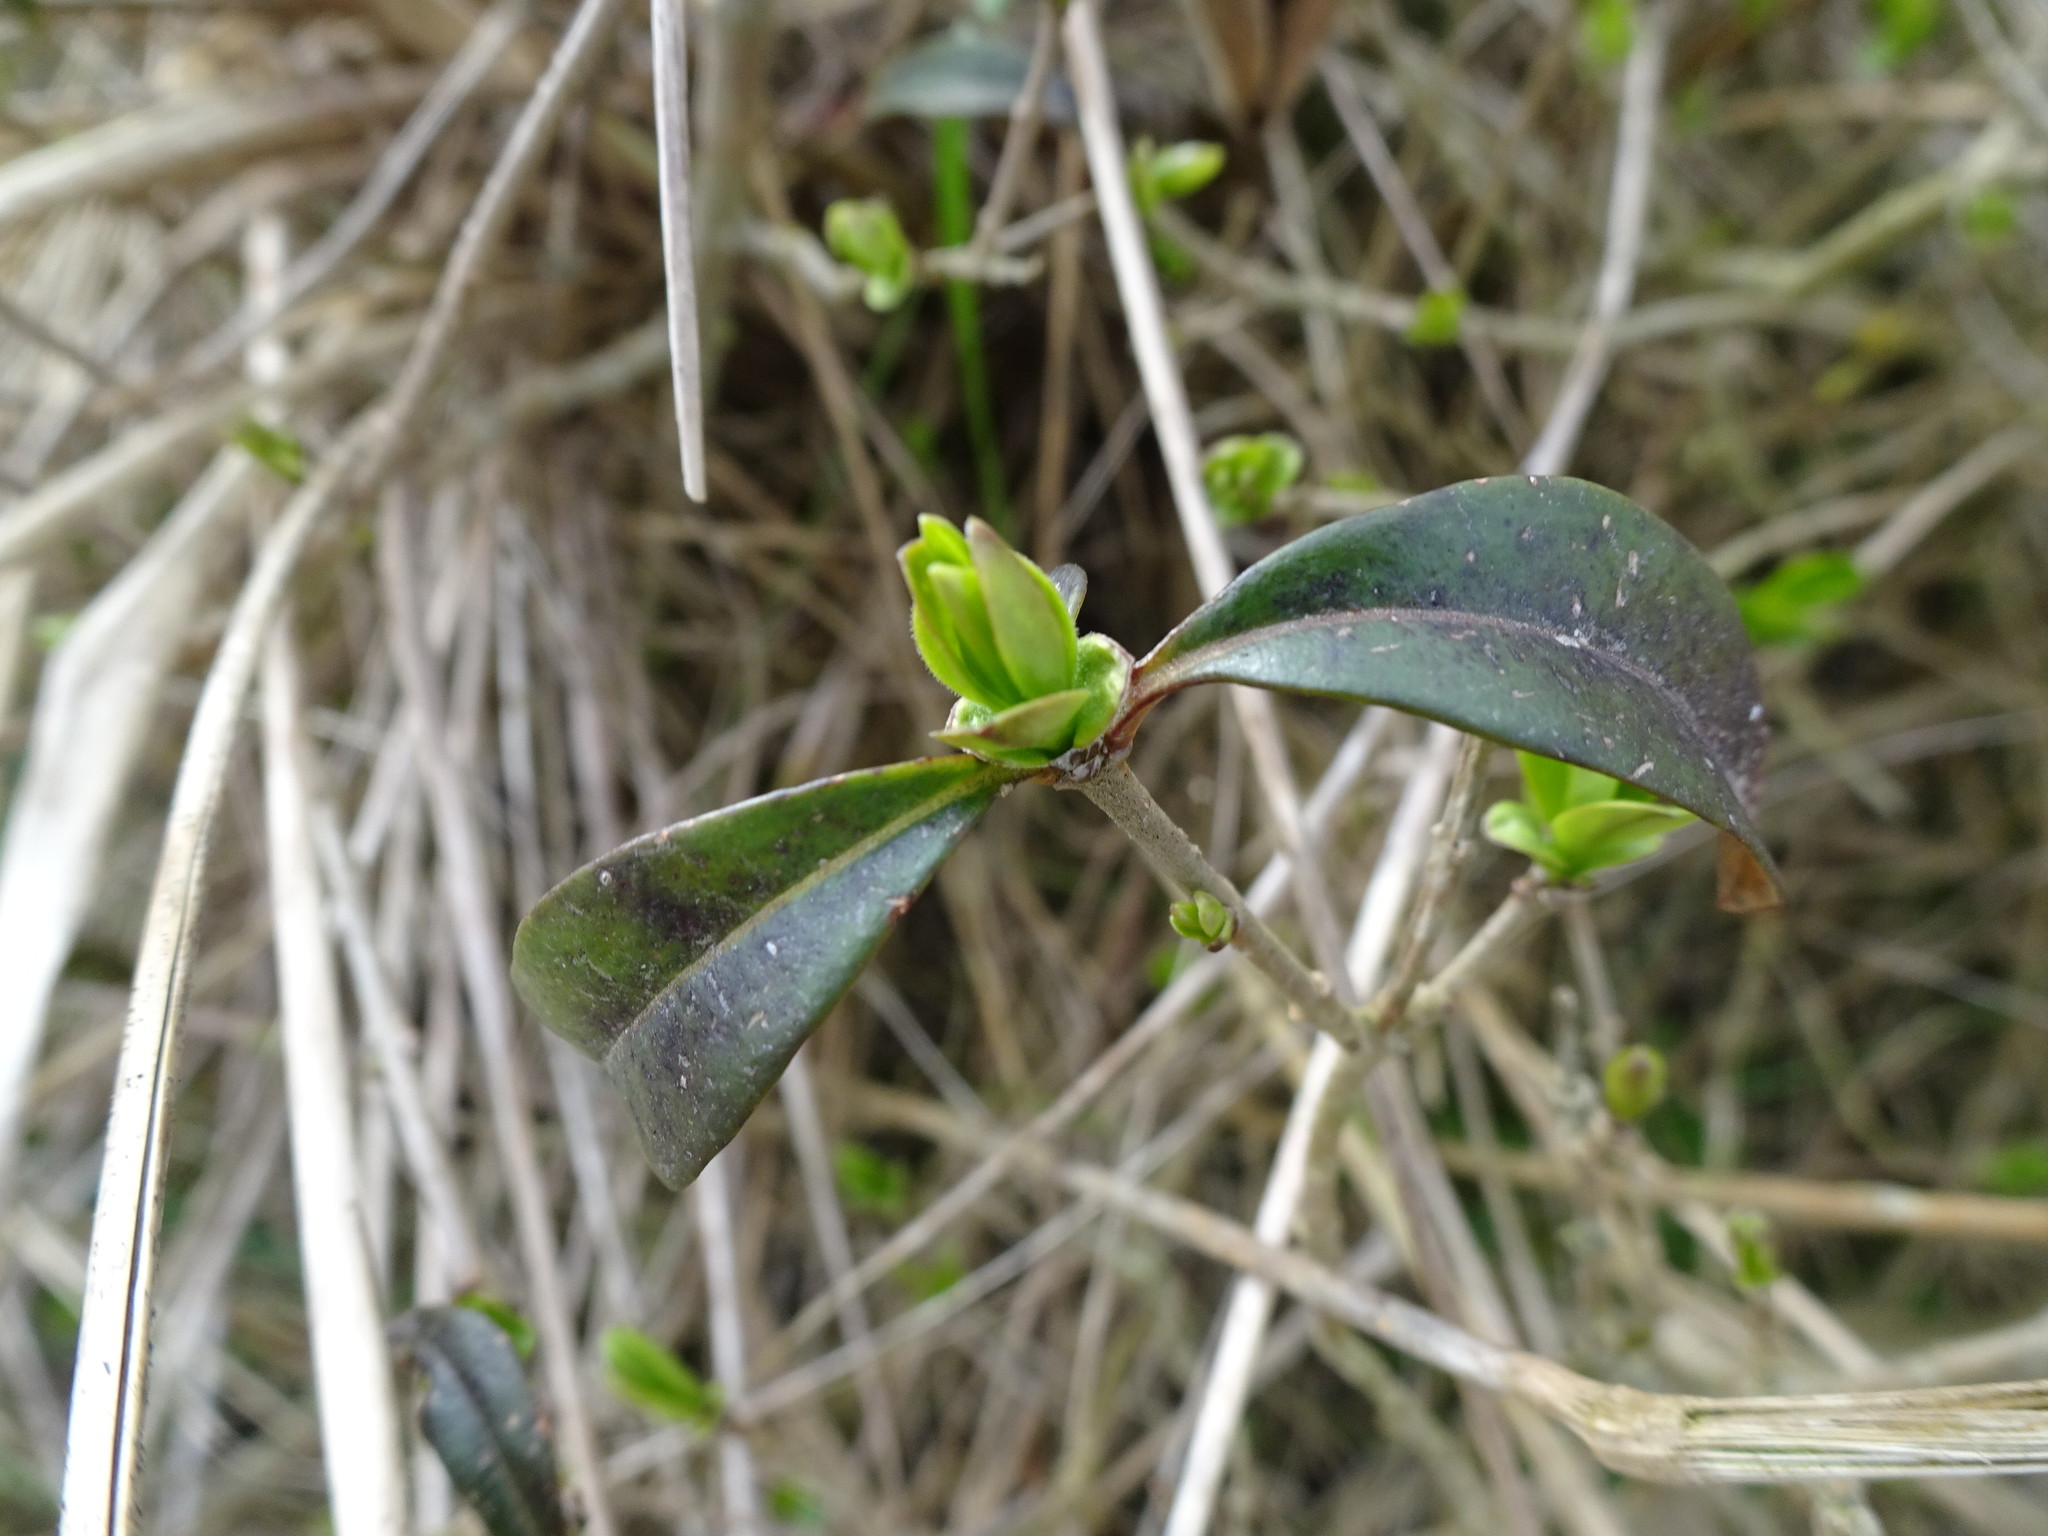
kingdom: Plantae
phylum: Tracheophyta
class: Magnoliopsida
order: Lamiales
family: Oleaceae
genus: Ligustrum
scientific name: Ligustrum vulgare
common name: Wild privet
